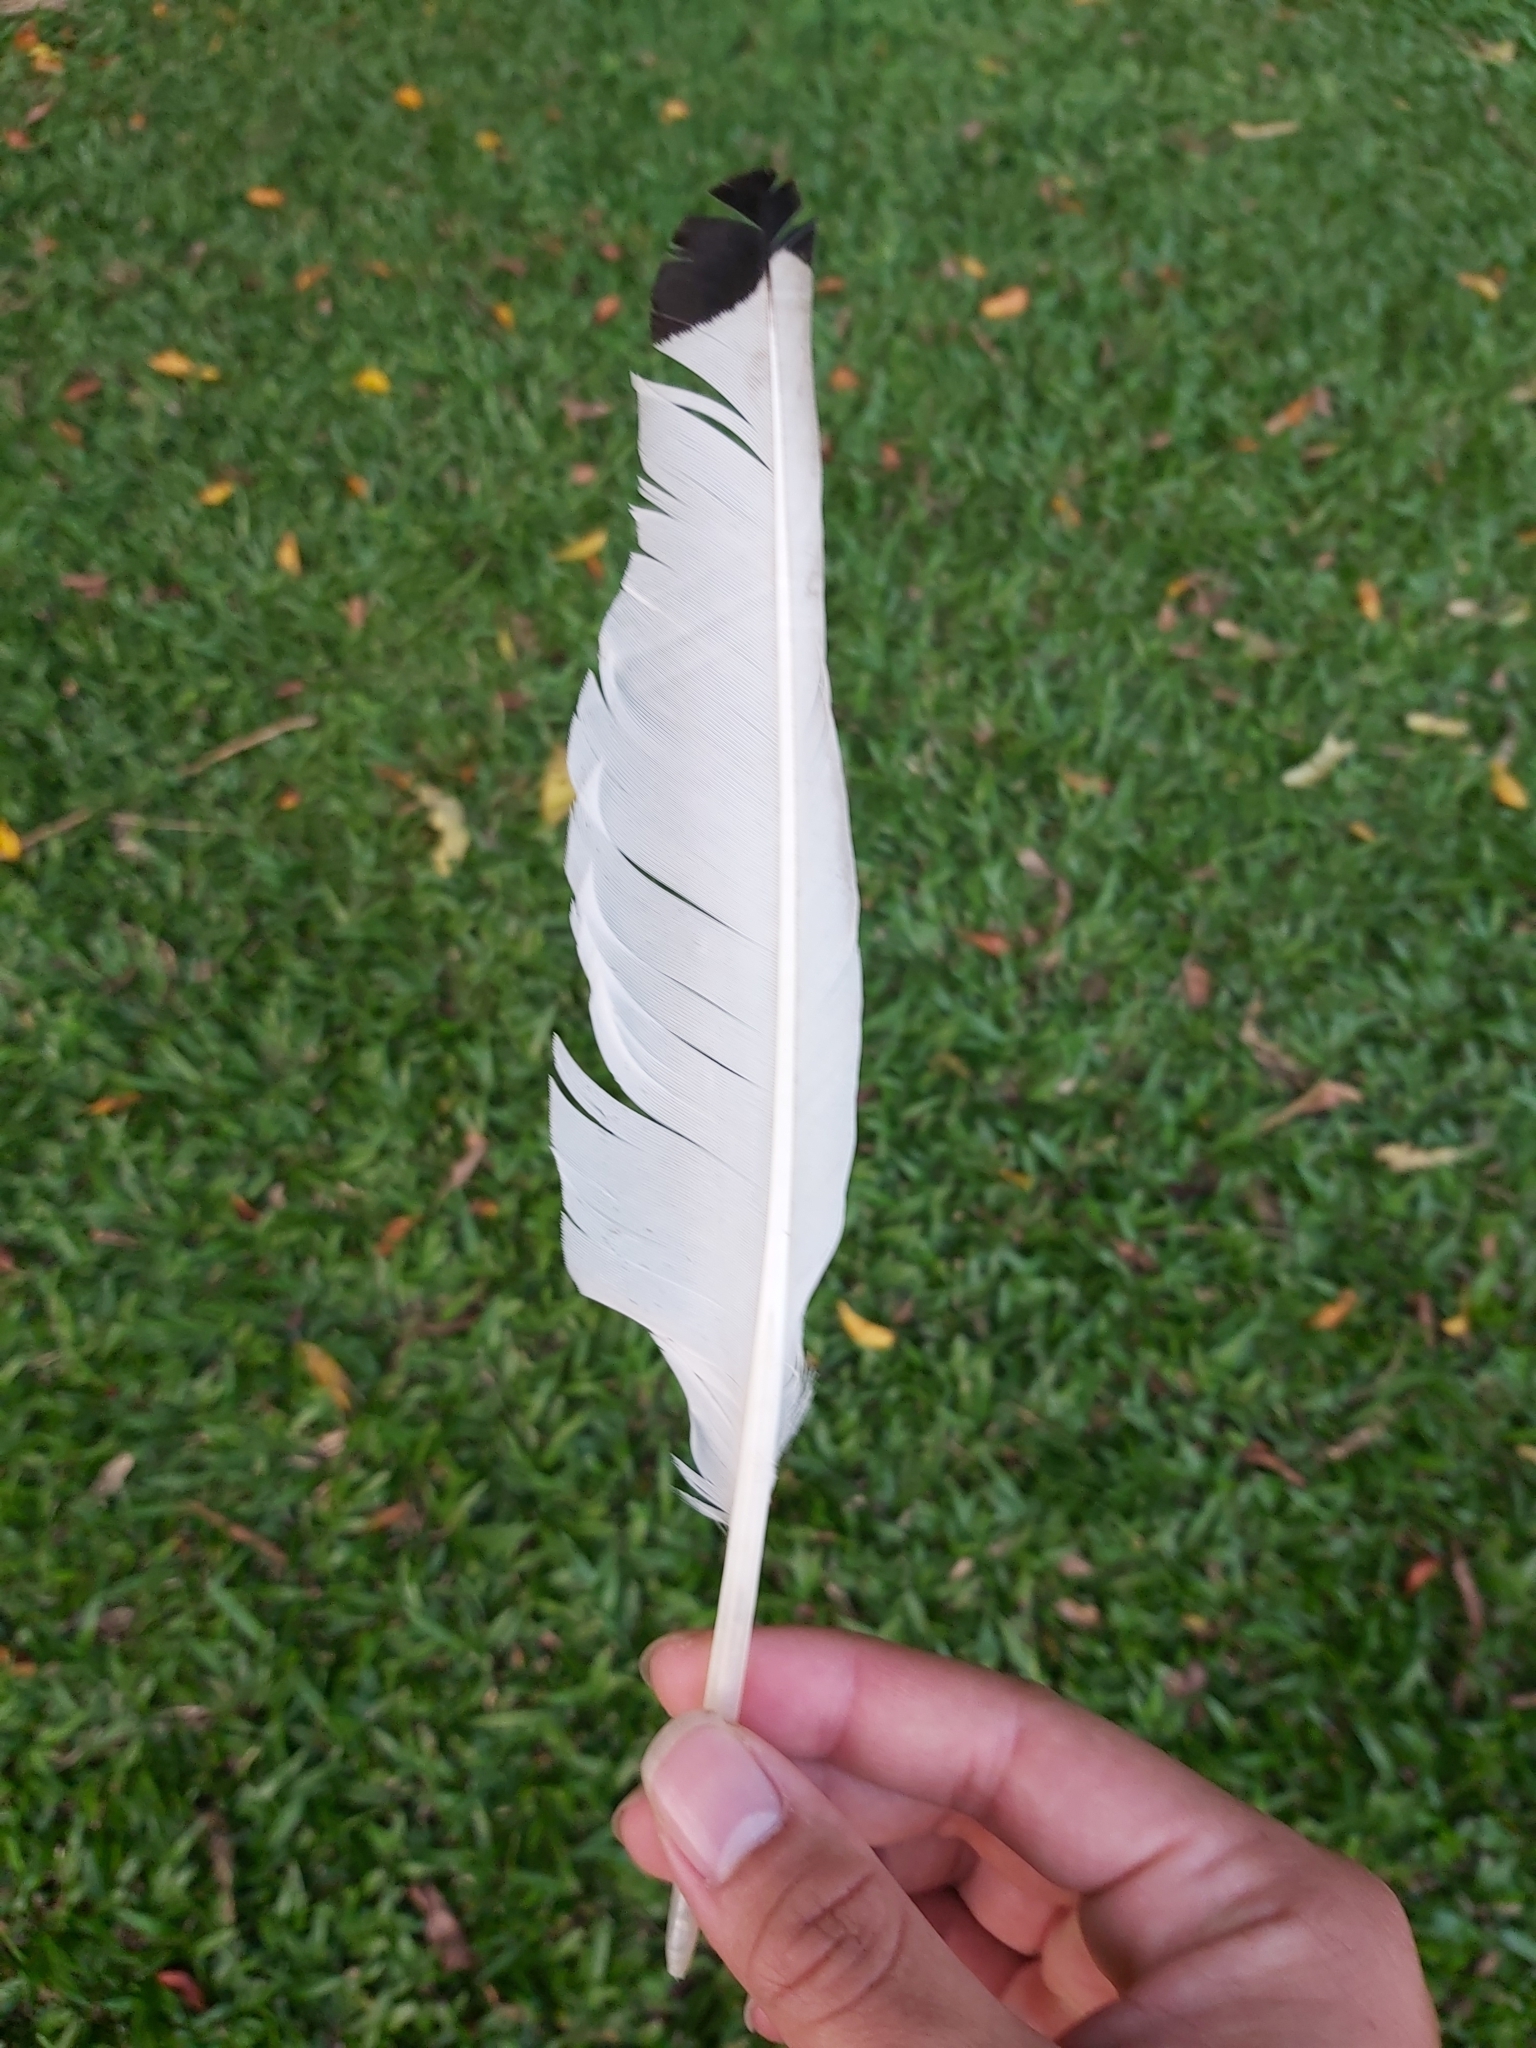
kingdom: Animalia
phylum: Chordata
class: Aves
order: Pelecaniformes
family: Threskiornithidae
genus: Threskiornis
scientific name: Threskiornis molucca
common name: Australian white ibis
